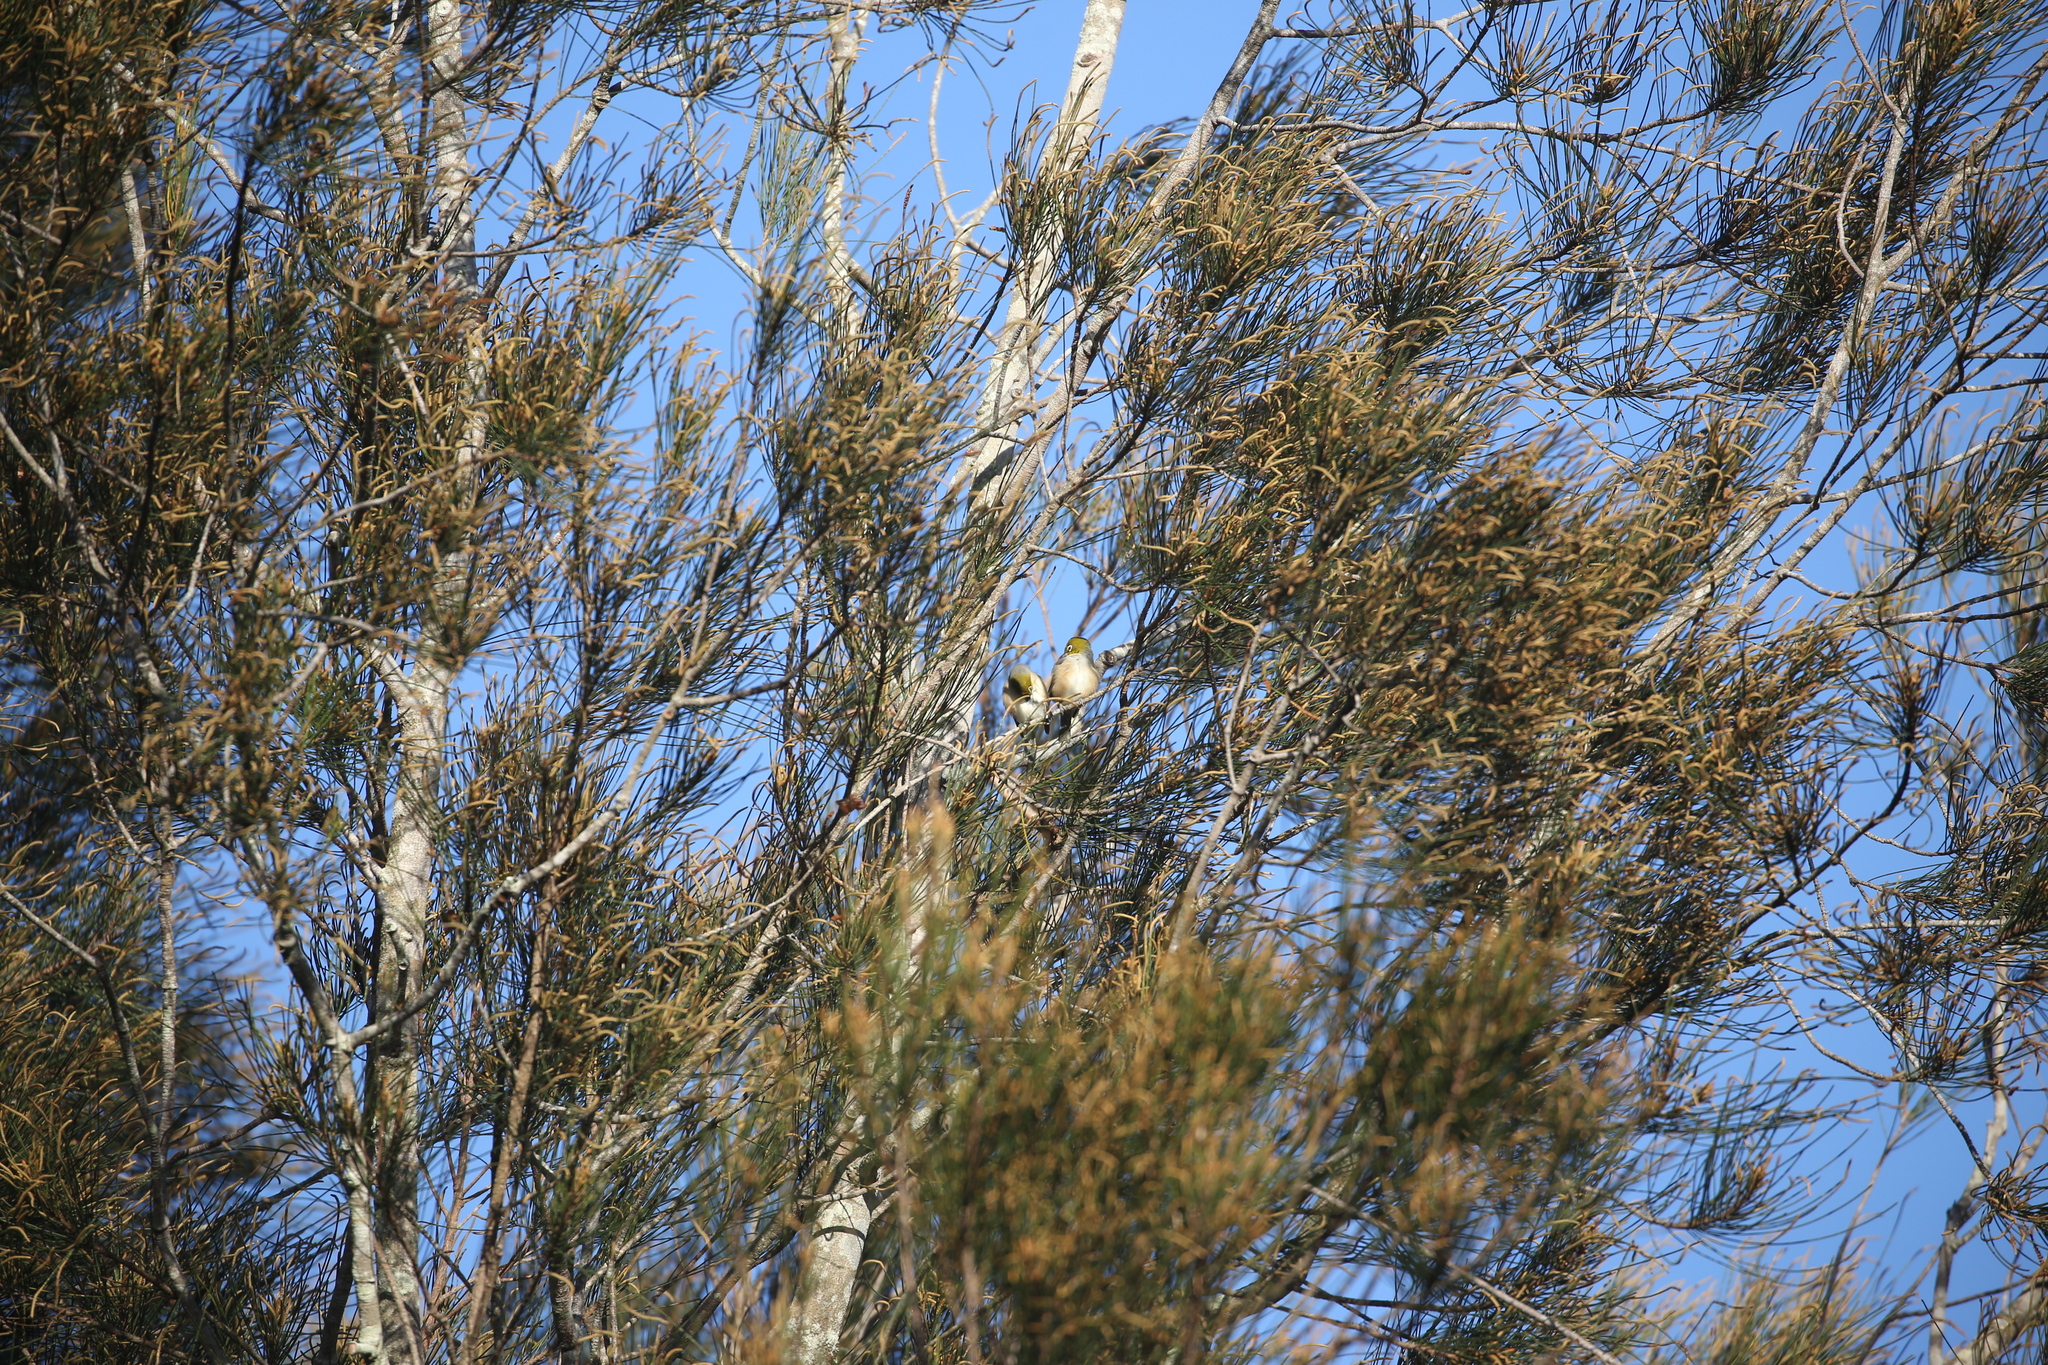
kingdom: Animalia
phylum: Chordata
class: Aves
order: Passeriformes
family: Zosteropidae
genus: Zosterops
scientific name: Zosterops lateralis
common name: Silvereye
